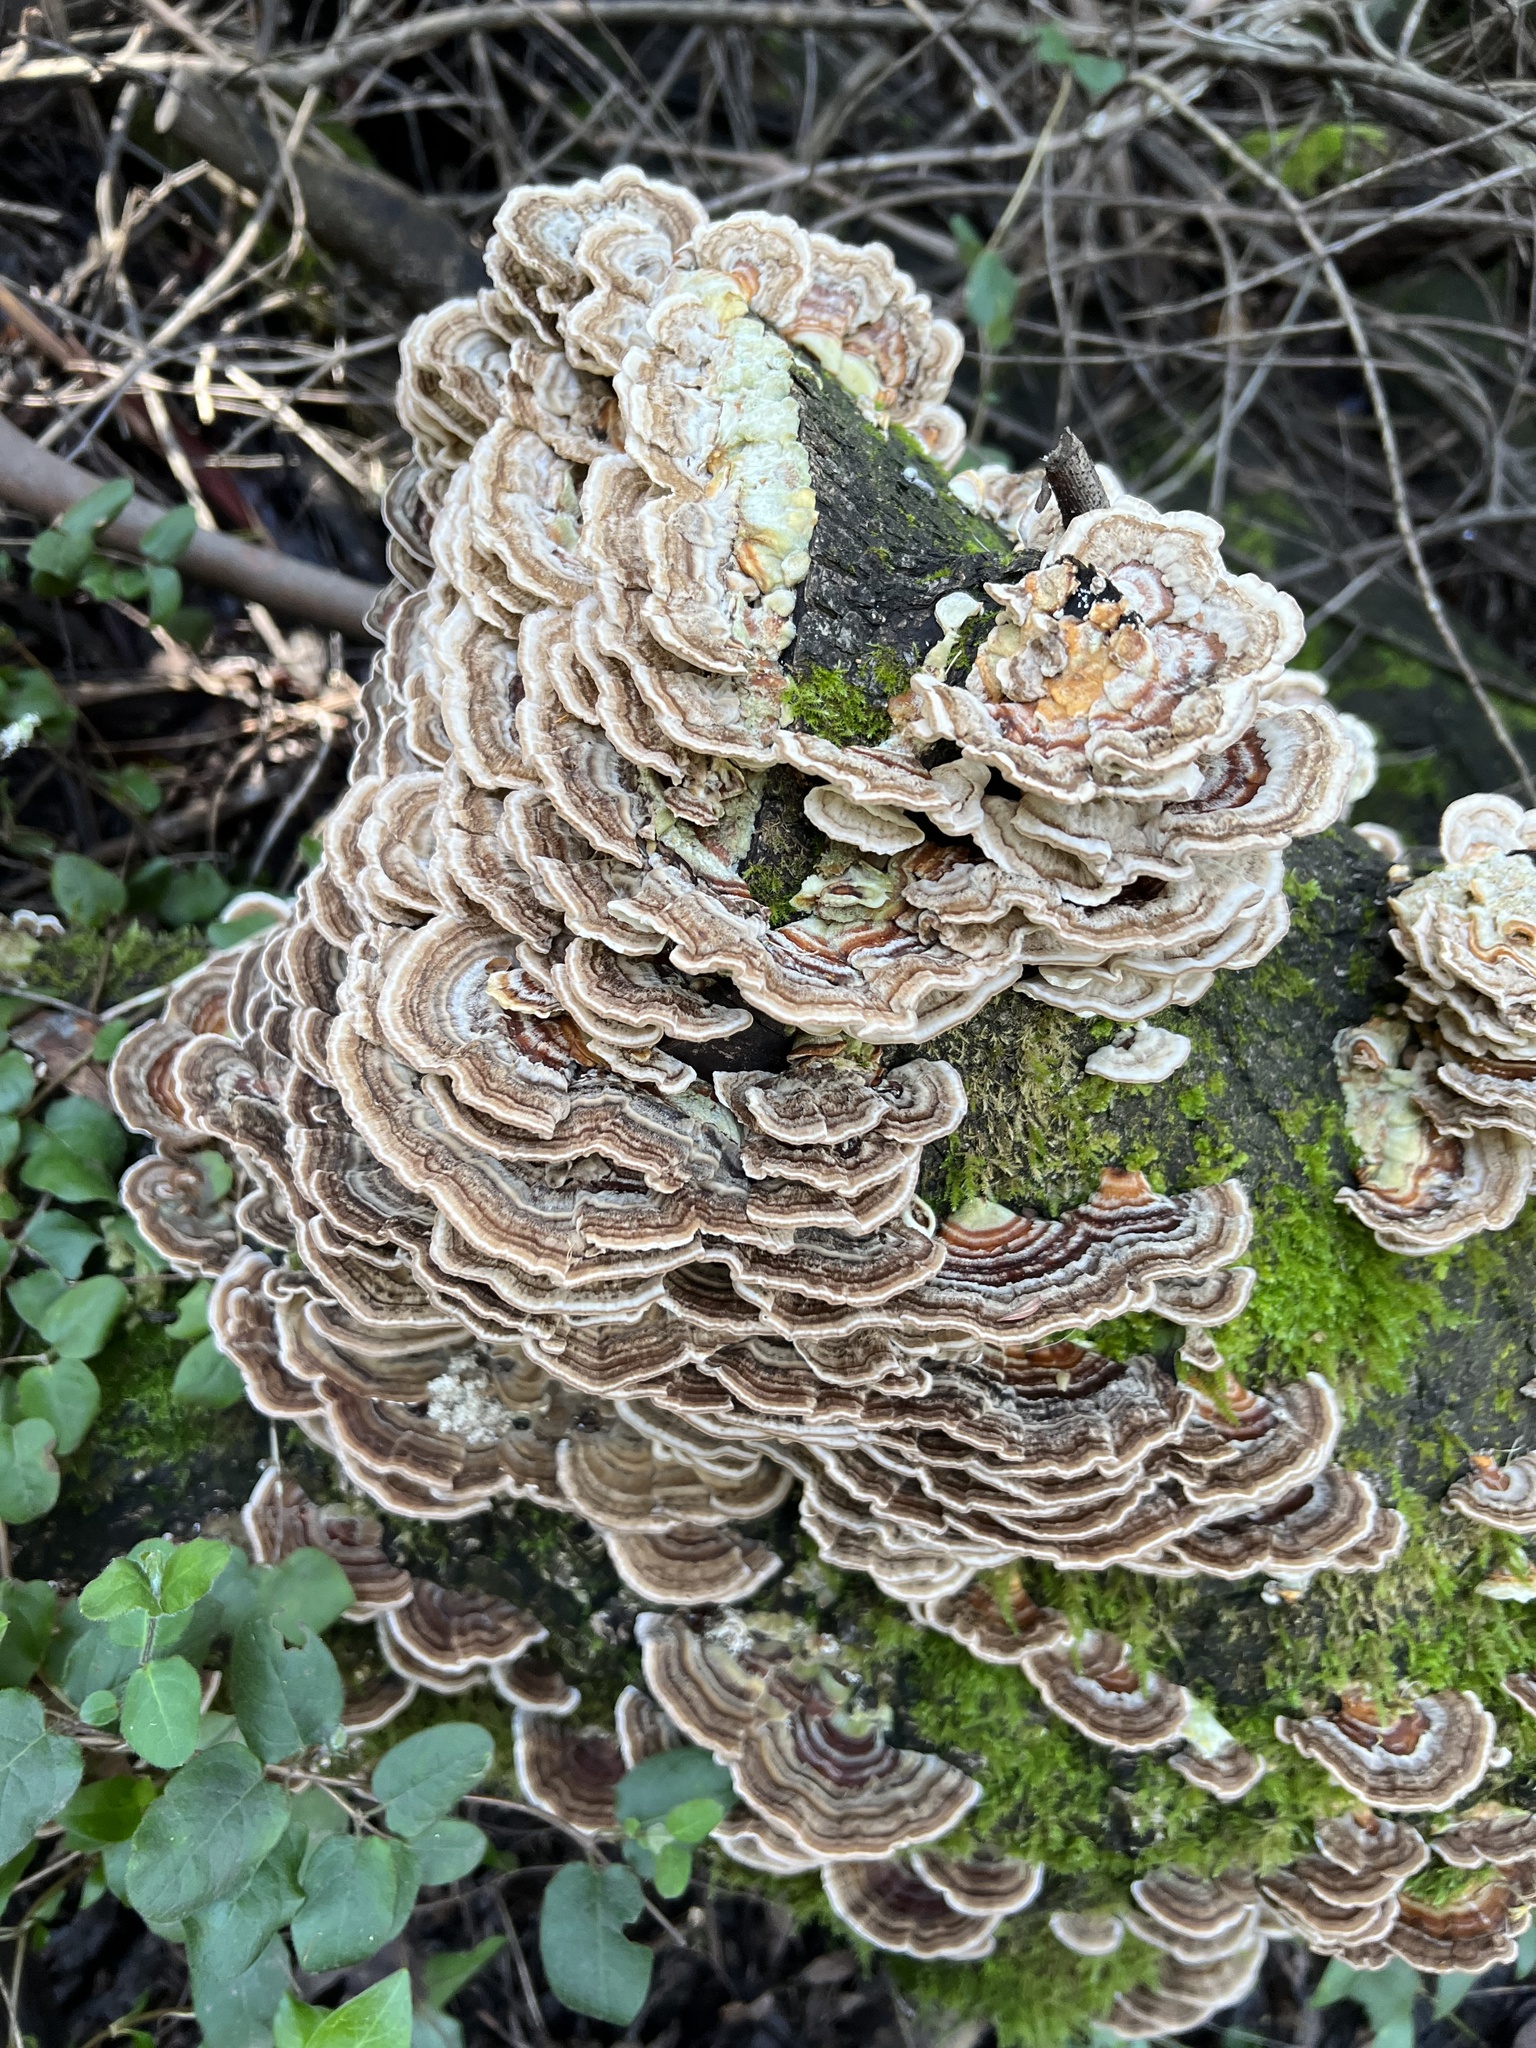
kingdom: Fungi
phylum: Basidiomycota
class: Agaricomycetes
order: Polyporales
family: Polyporaceae
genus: Trametes
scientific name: Trametes versicolor
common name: Turkeytail
